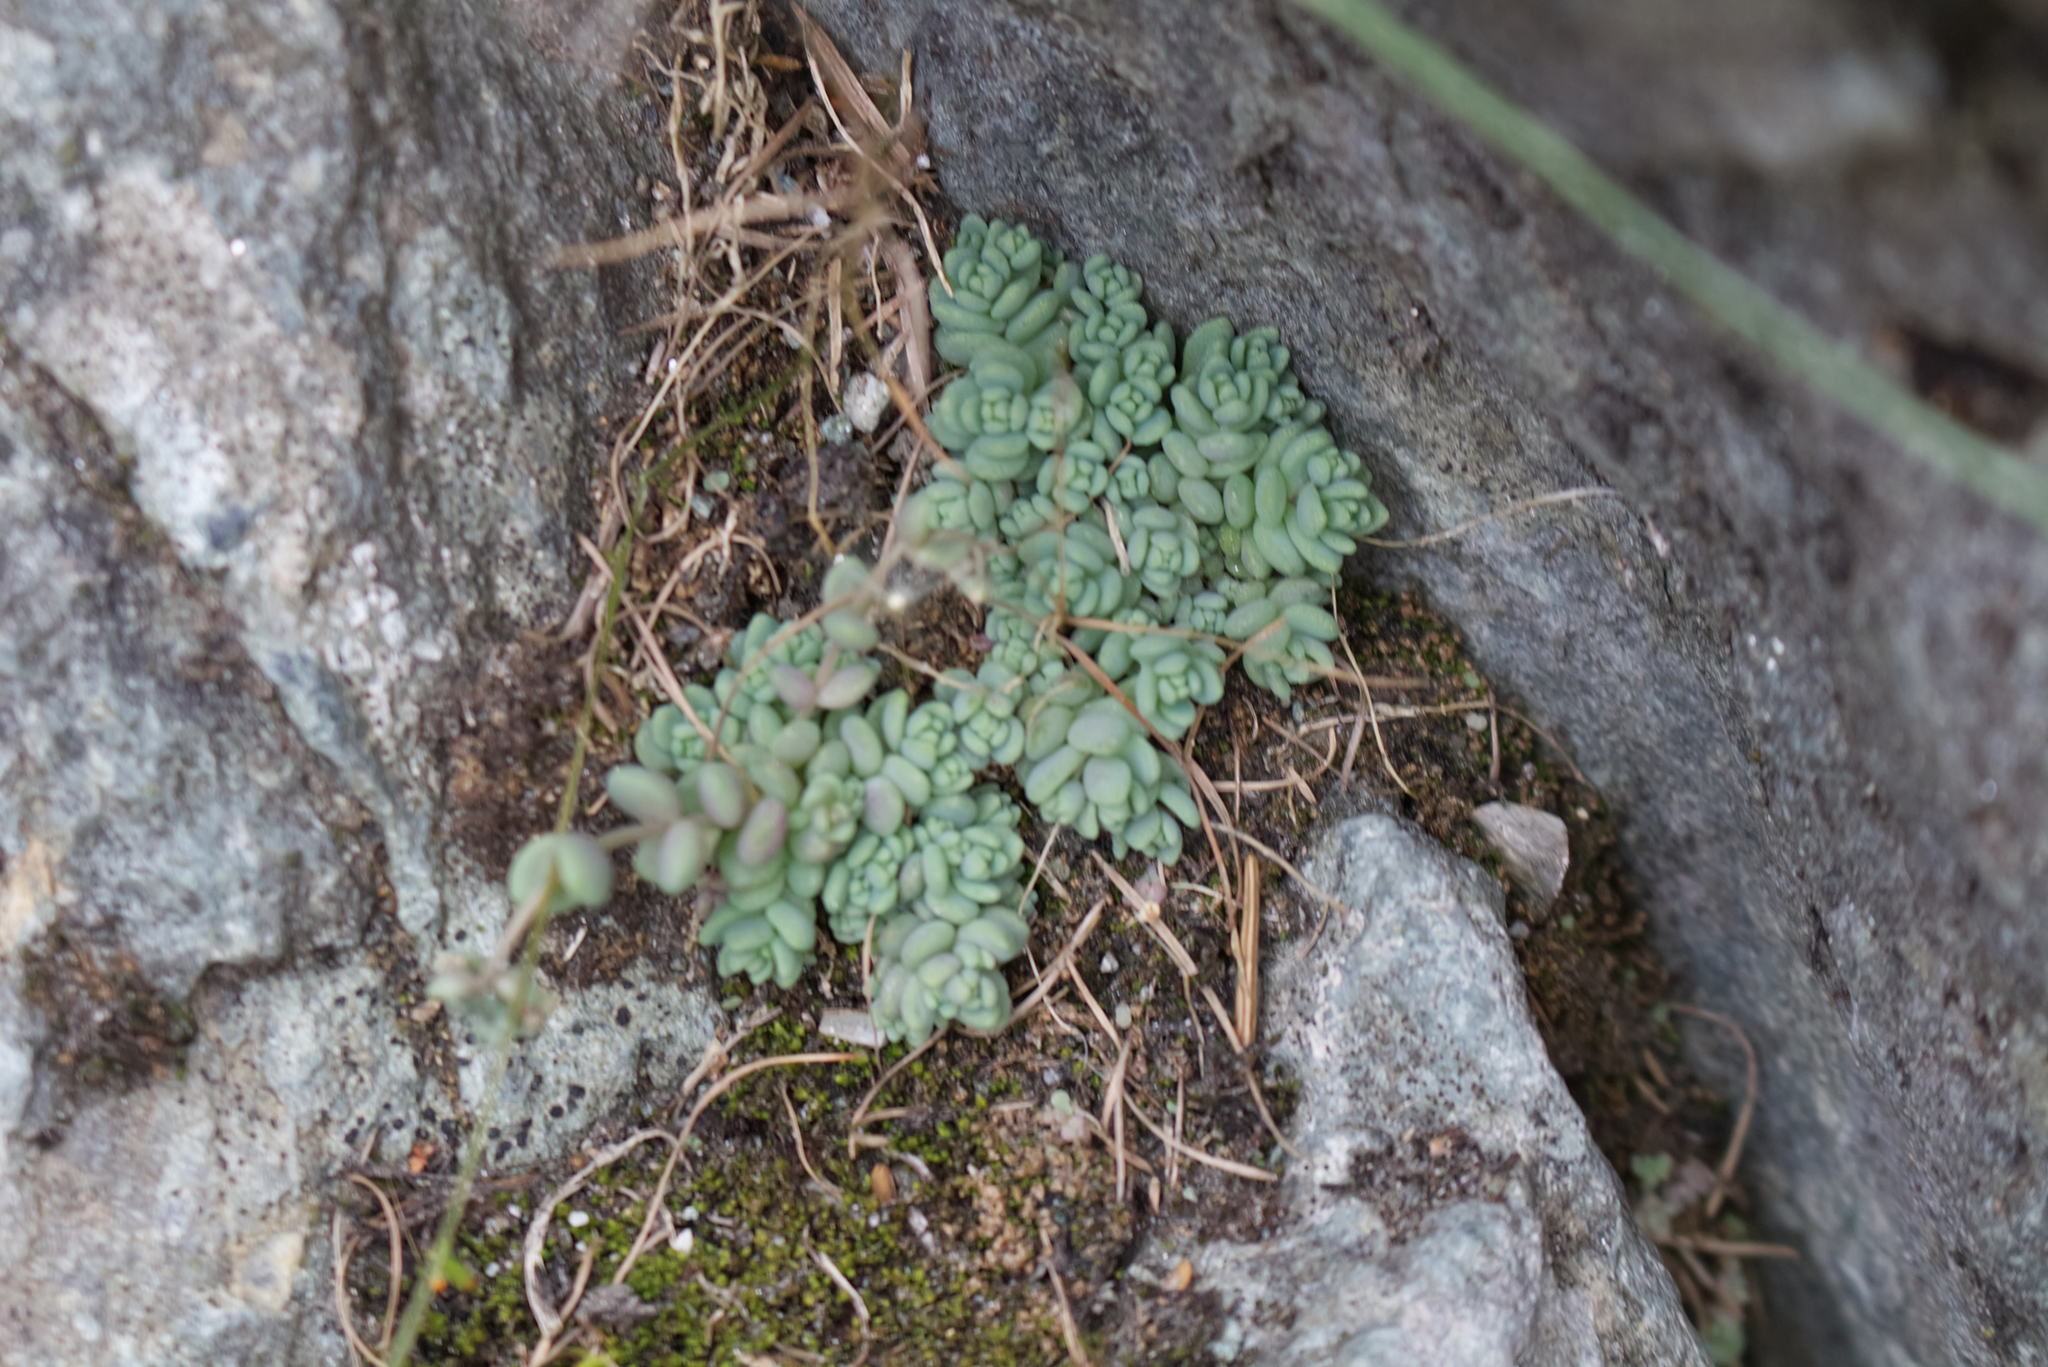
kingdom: Plantae
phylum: Tracheophyta
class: Magnoliopsida
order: Saxifragales
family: Crassulaceae
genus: Sedum
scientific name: Sedum dasyphyllum
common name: Thick-leaf stonecrop
